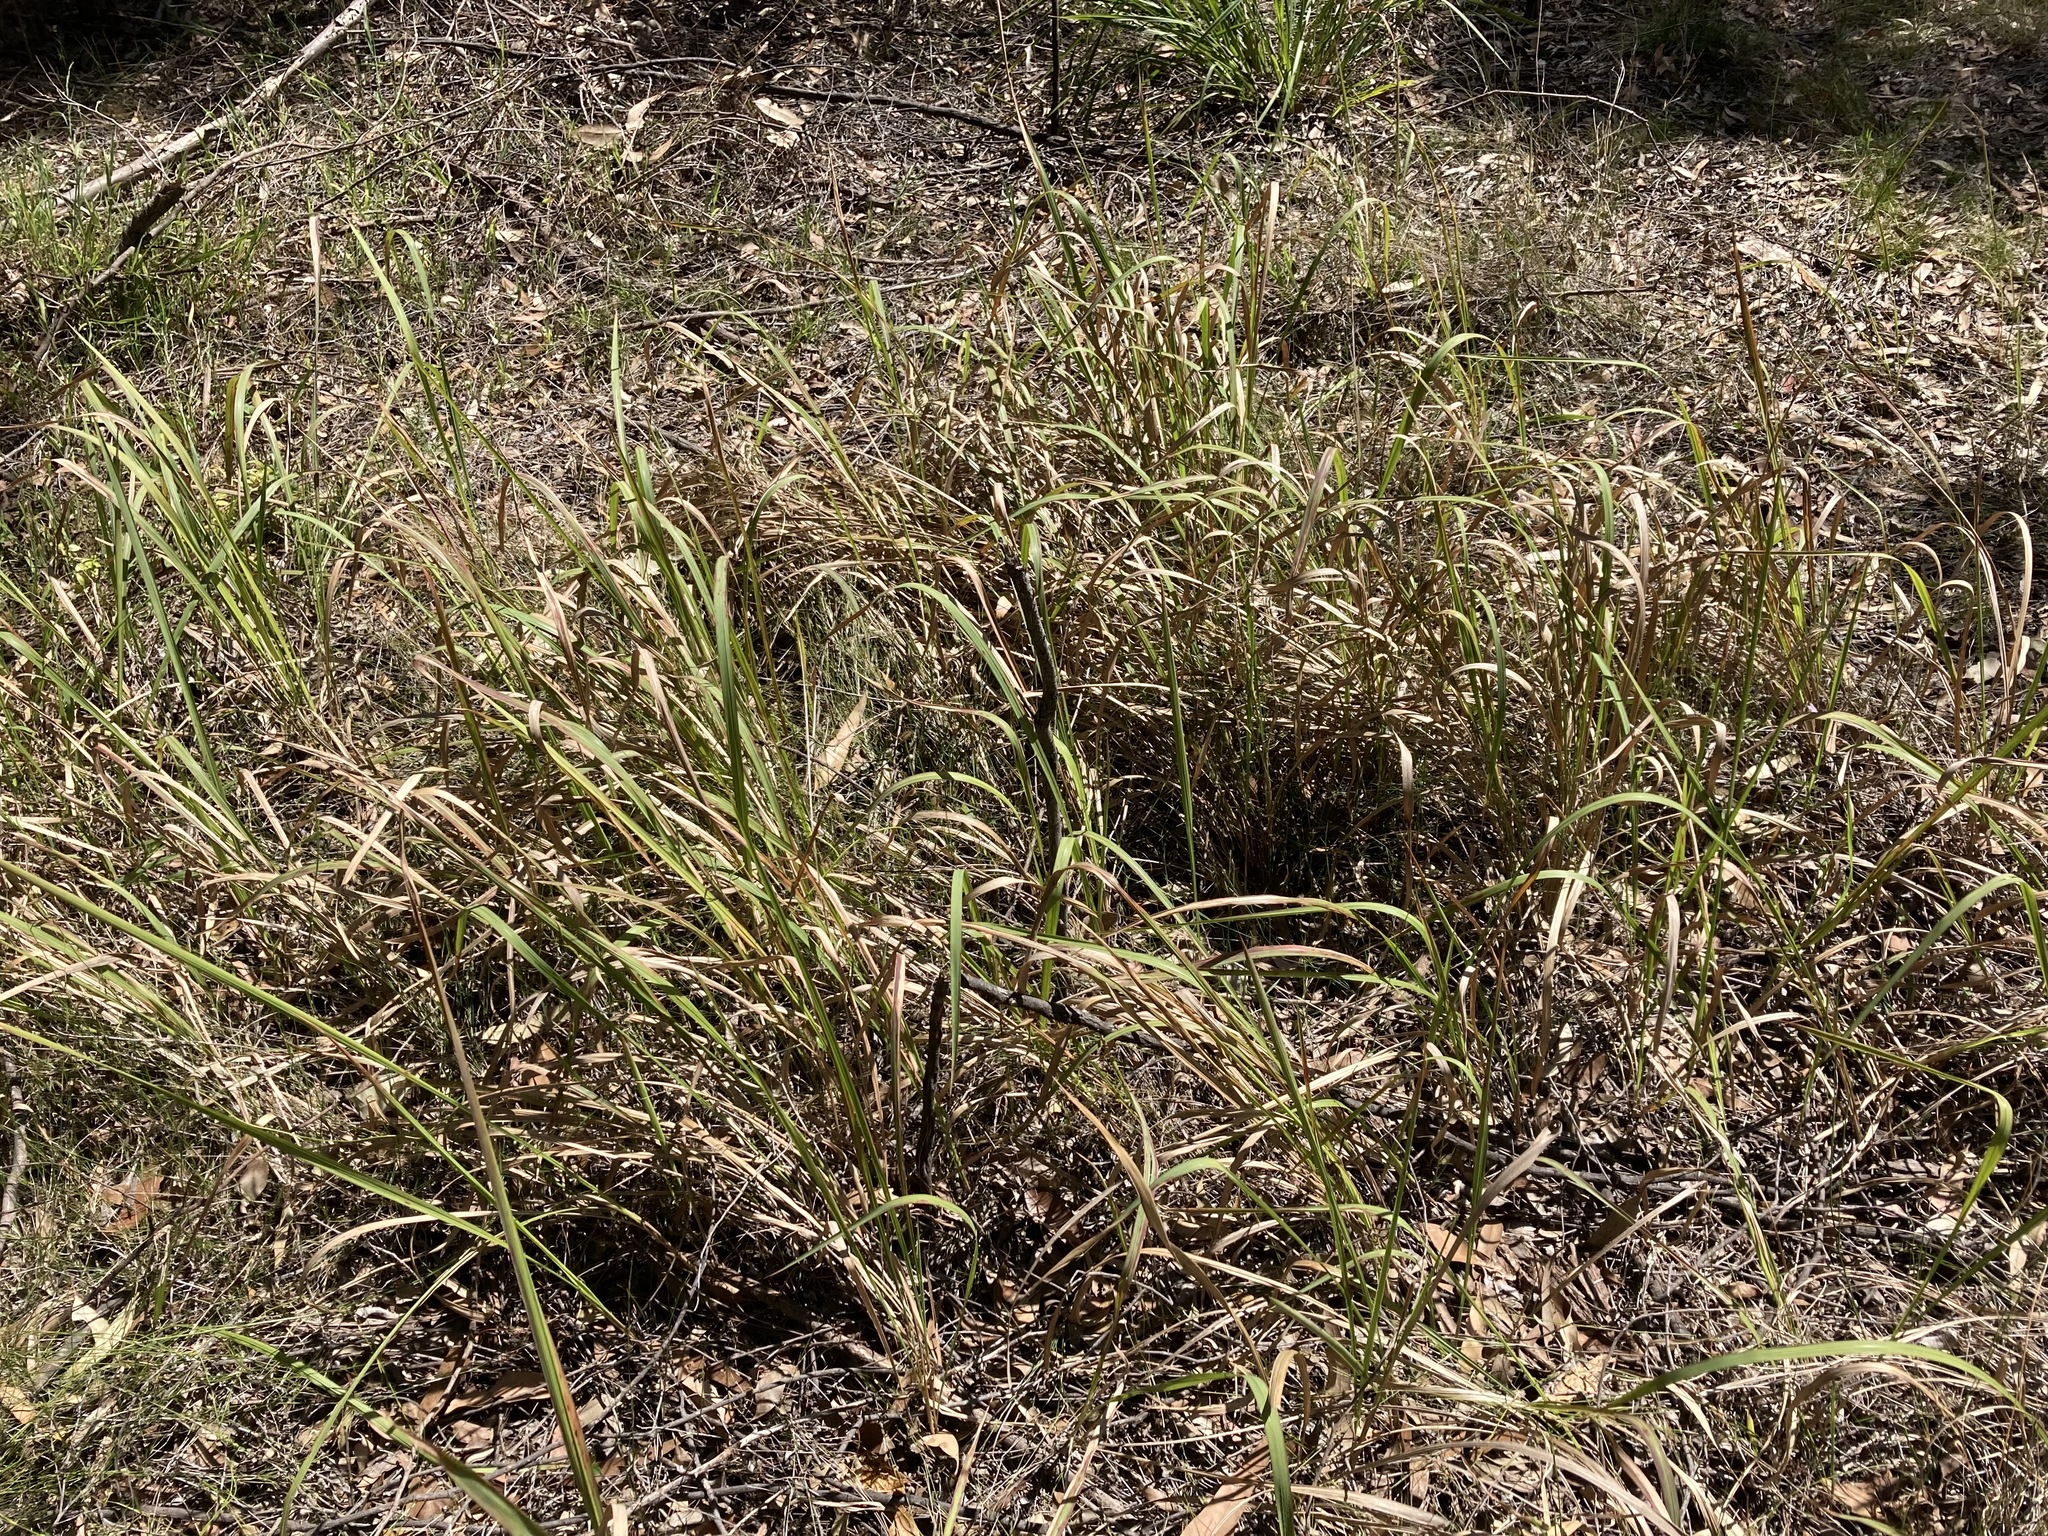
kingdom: Plantae
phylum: Tracheophyta
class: Liliopsida
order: Poales
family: Poaceae
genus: Imperata
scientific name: Imperata cylindrica
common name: Cogongrass
